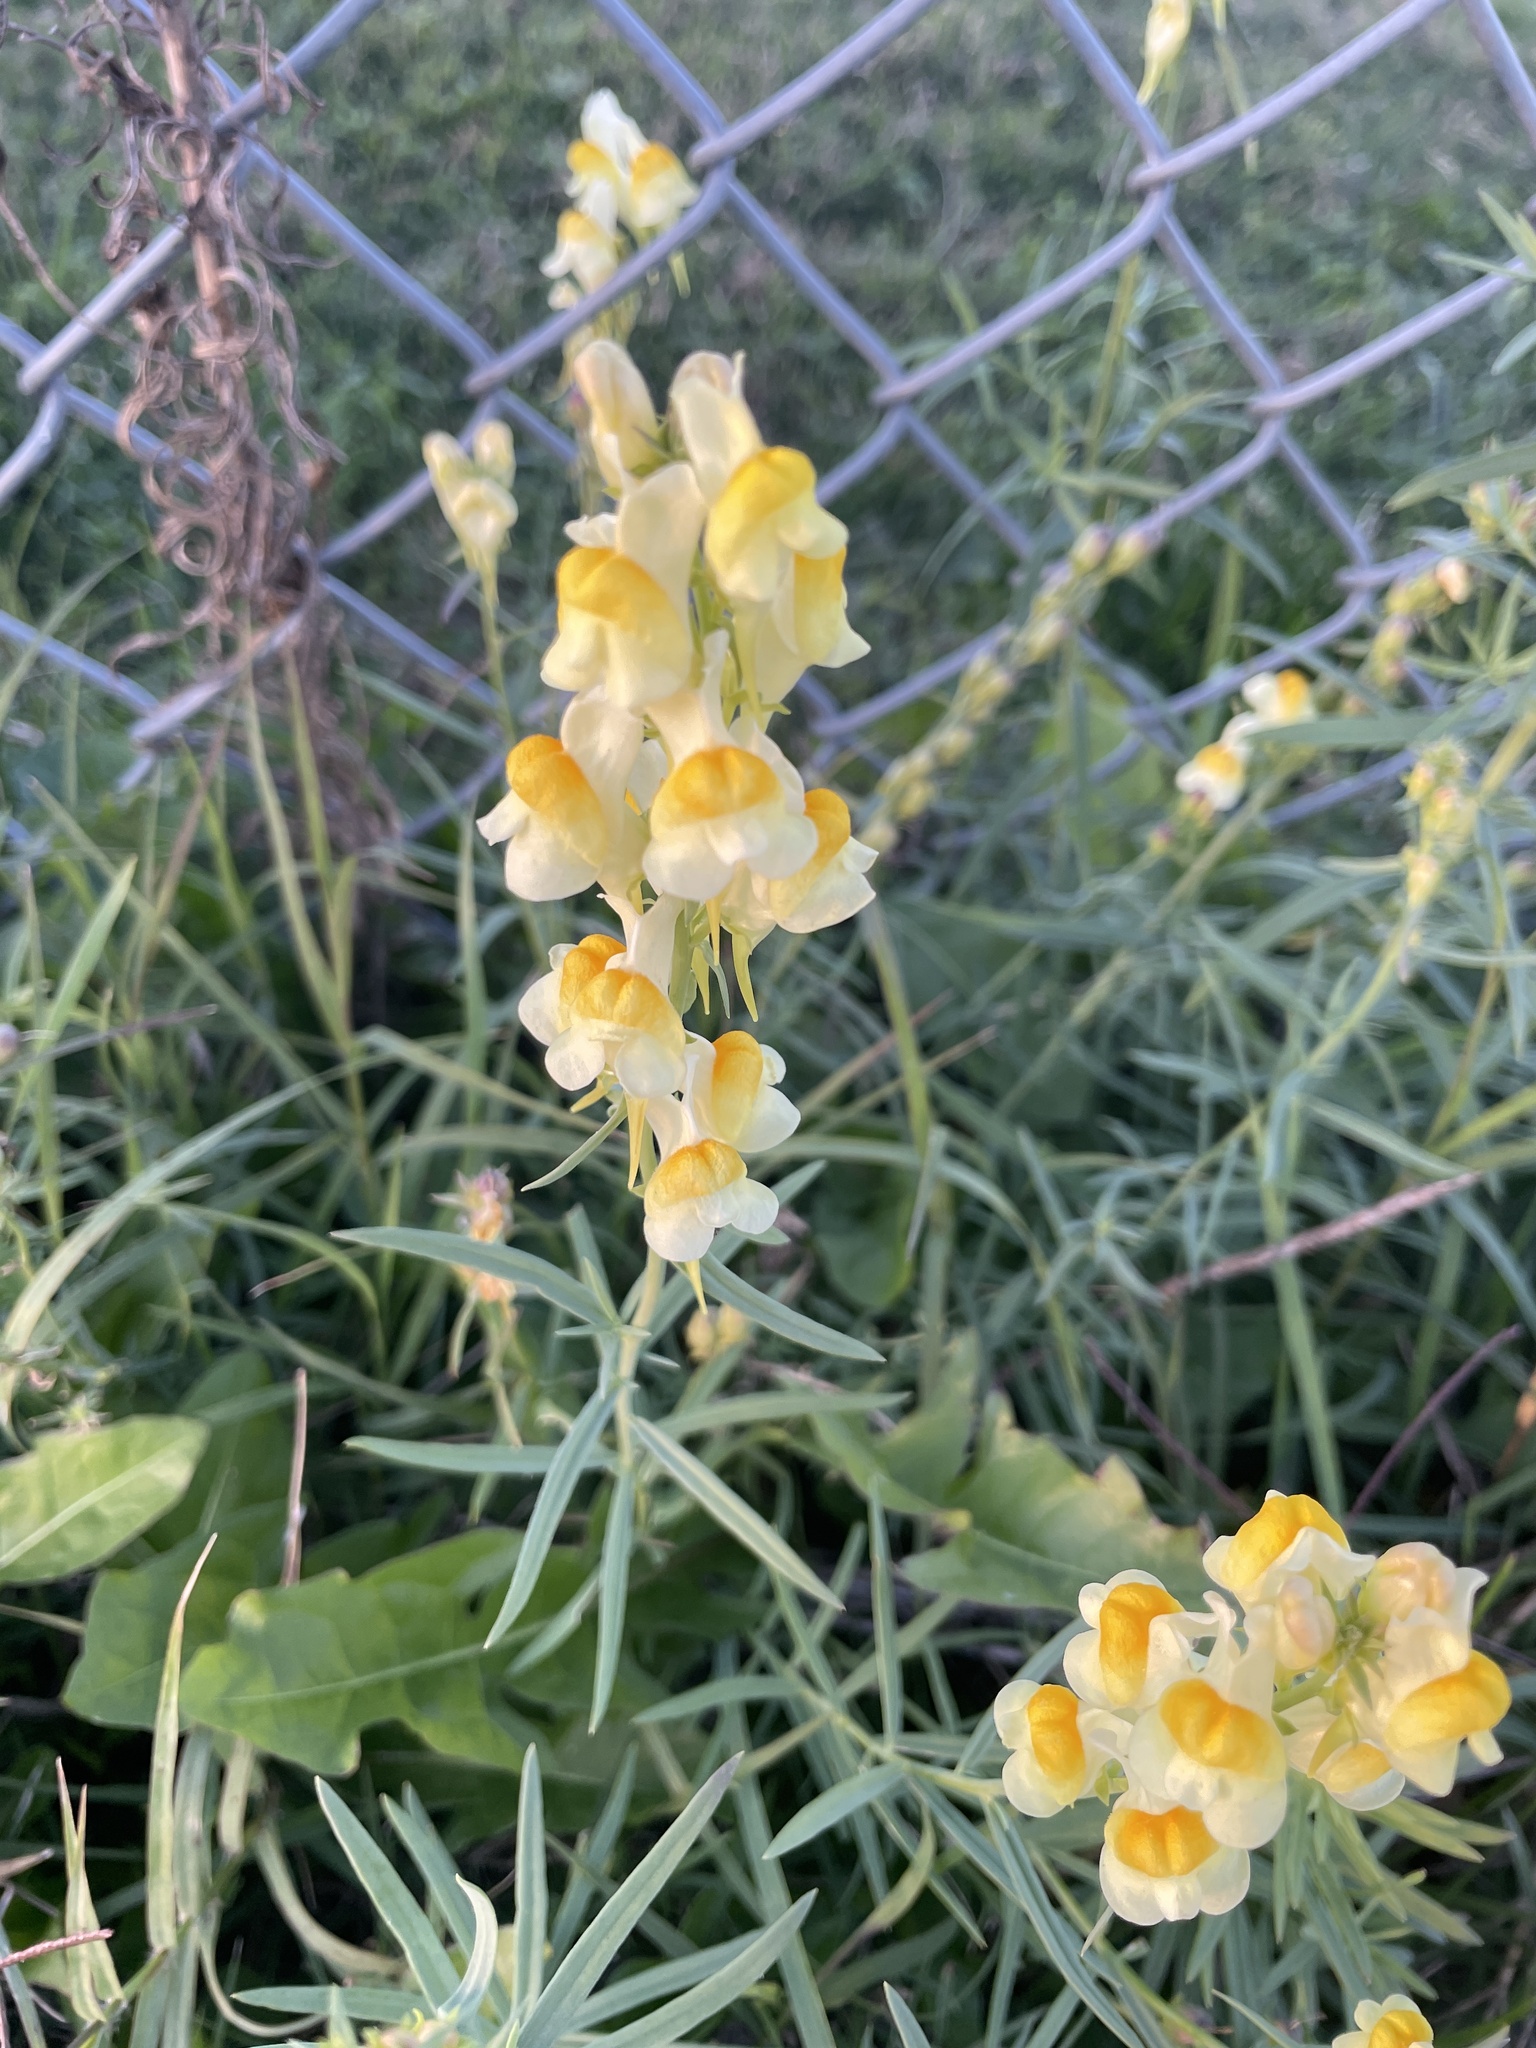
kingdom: Plantae
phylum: Tracheophyta
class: Magnoliopsida
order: Lamiales
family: Plantaginaceae
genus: Linaria
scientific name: Linaria vulgaris
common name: Butter and eggs
